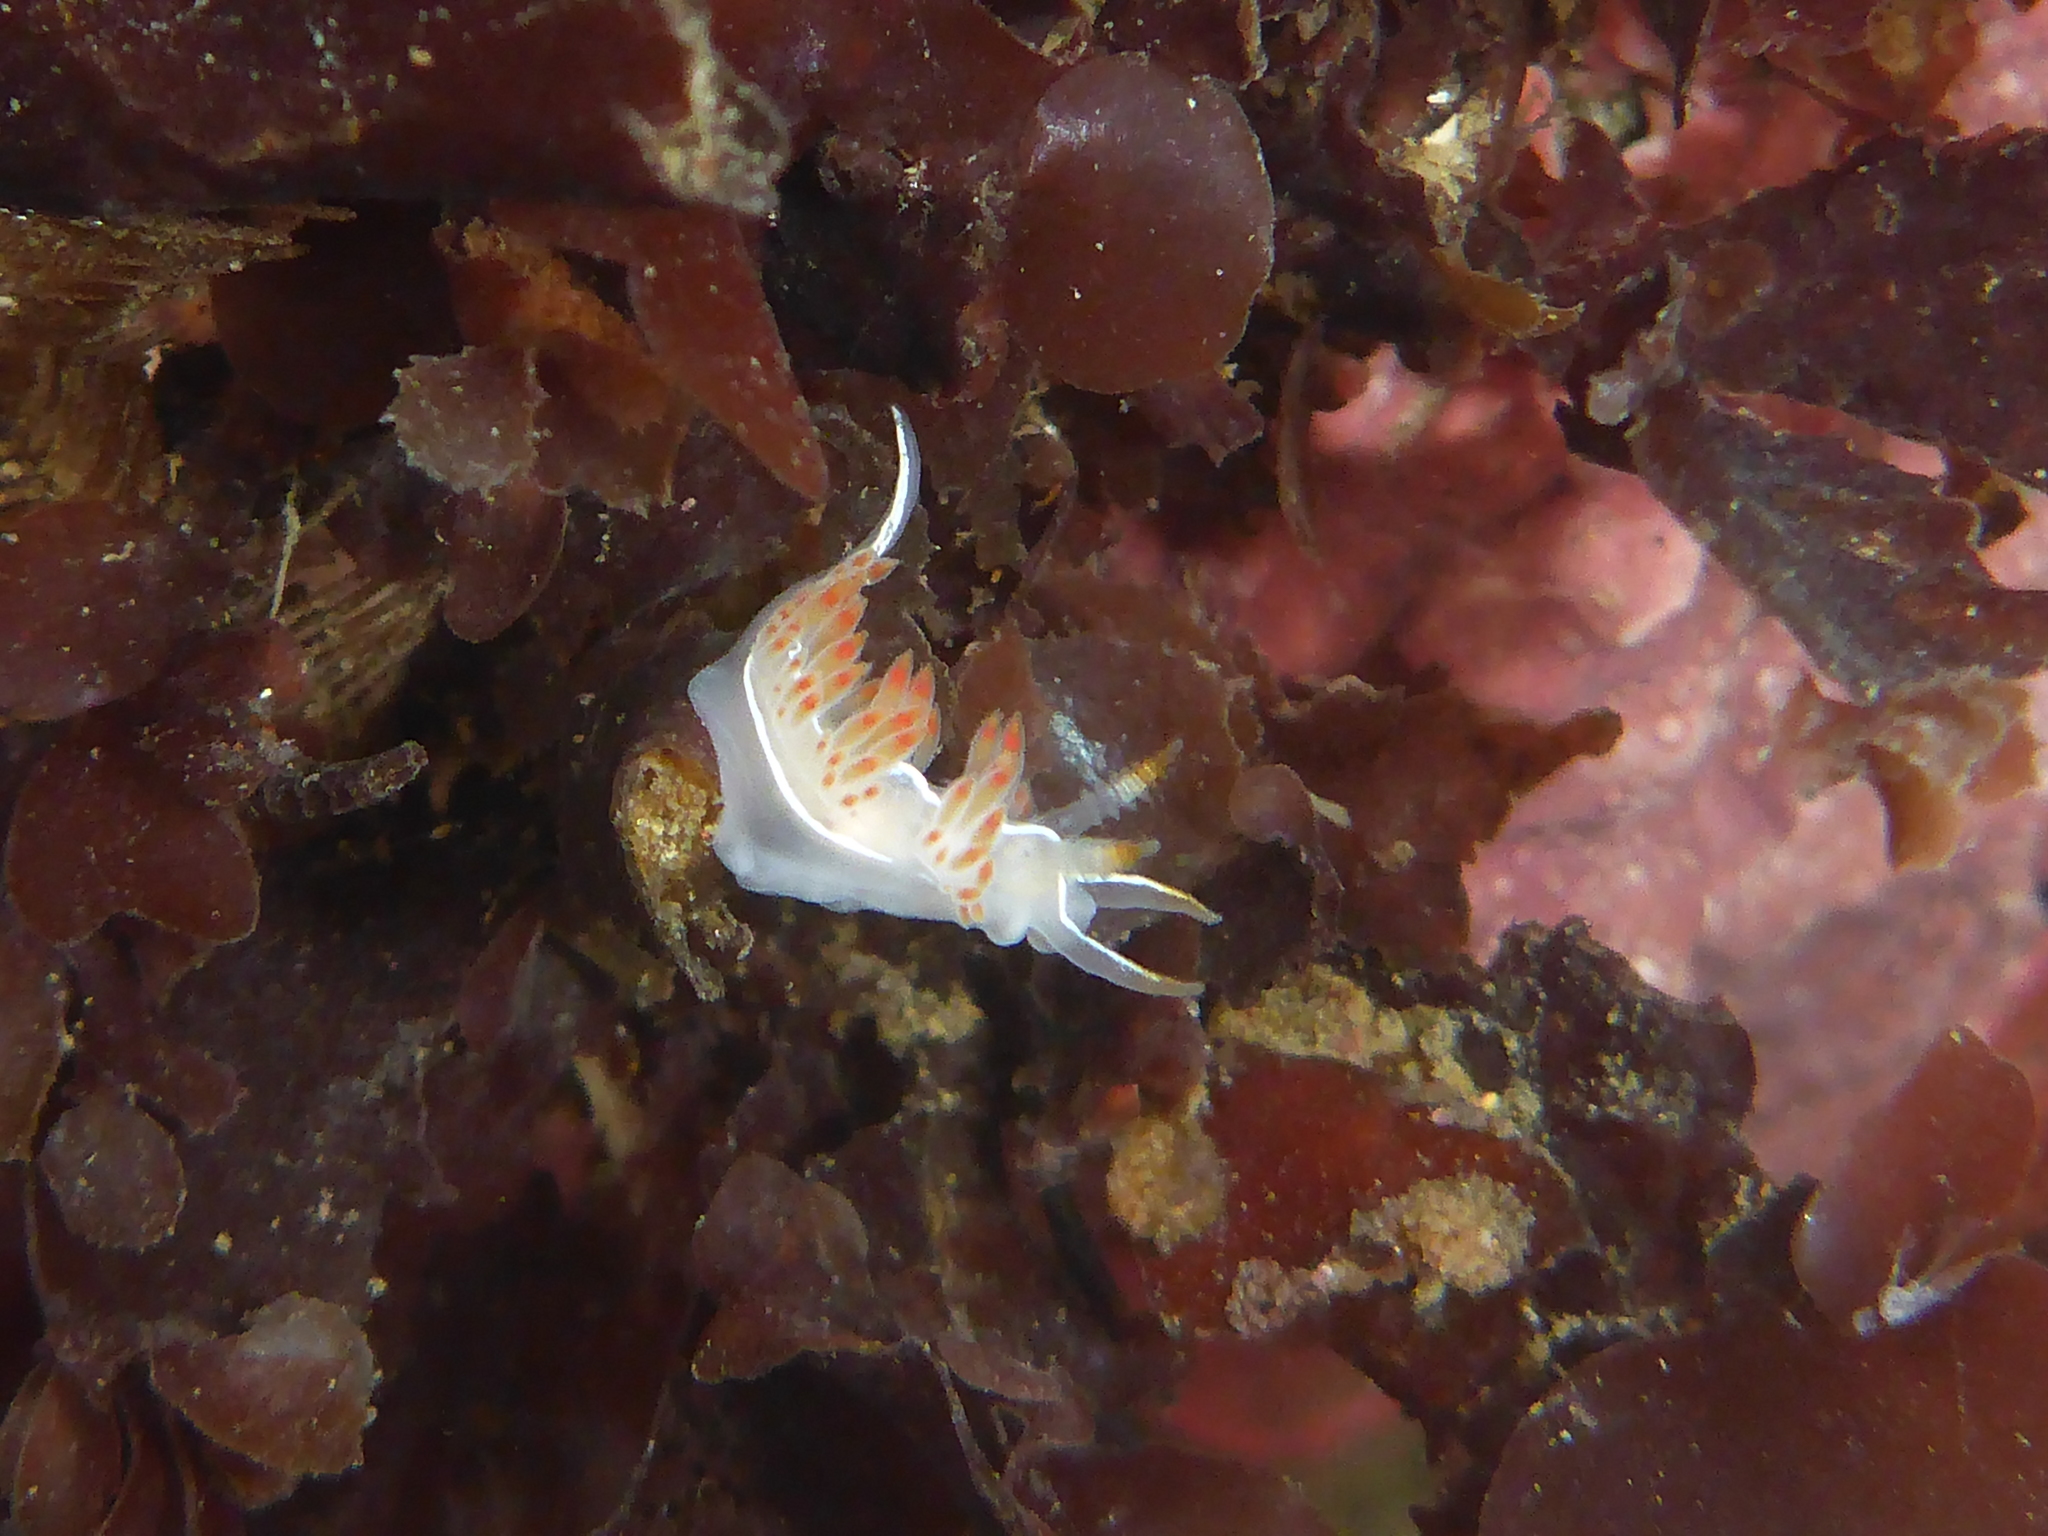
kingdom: Animalia
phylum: Mollusca
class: Gastropoda
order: Nudibranchia
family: Coryphellidae
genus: Coryphella
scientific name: Coryphella trilineata
